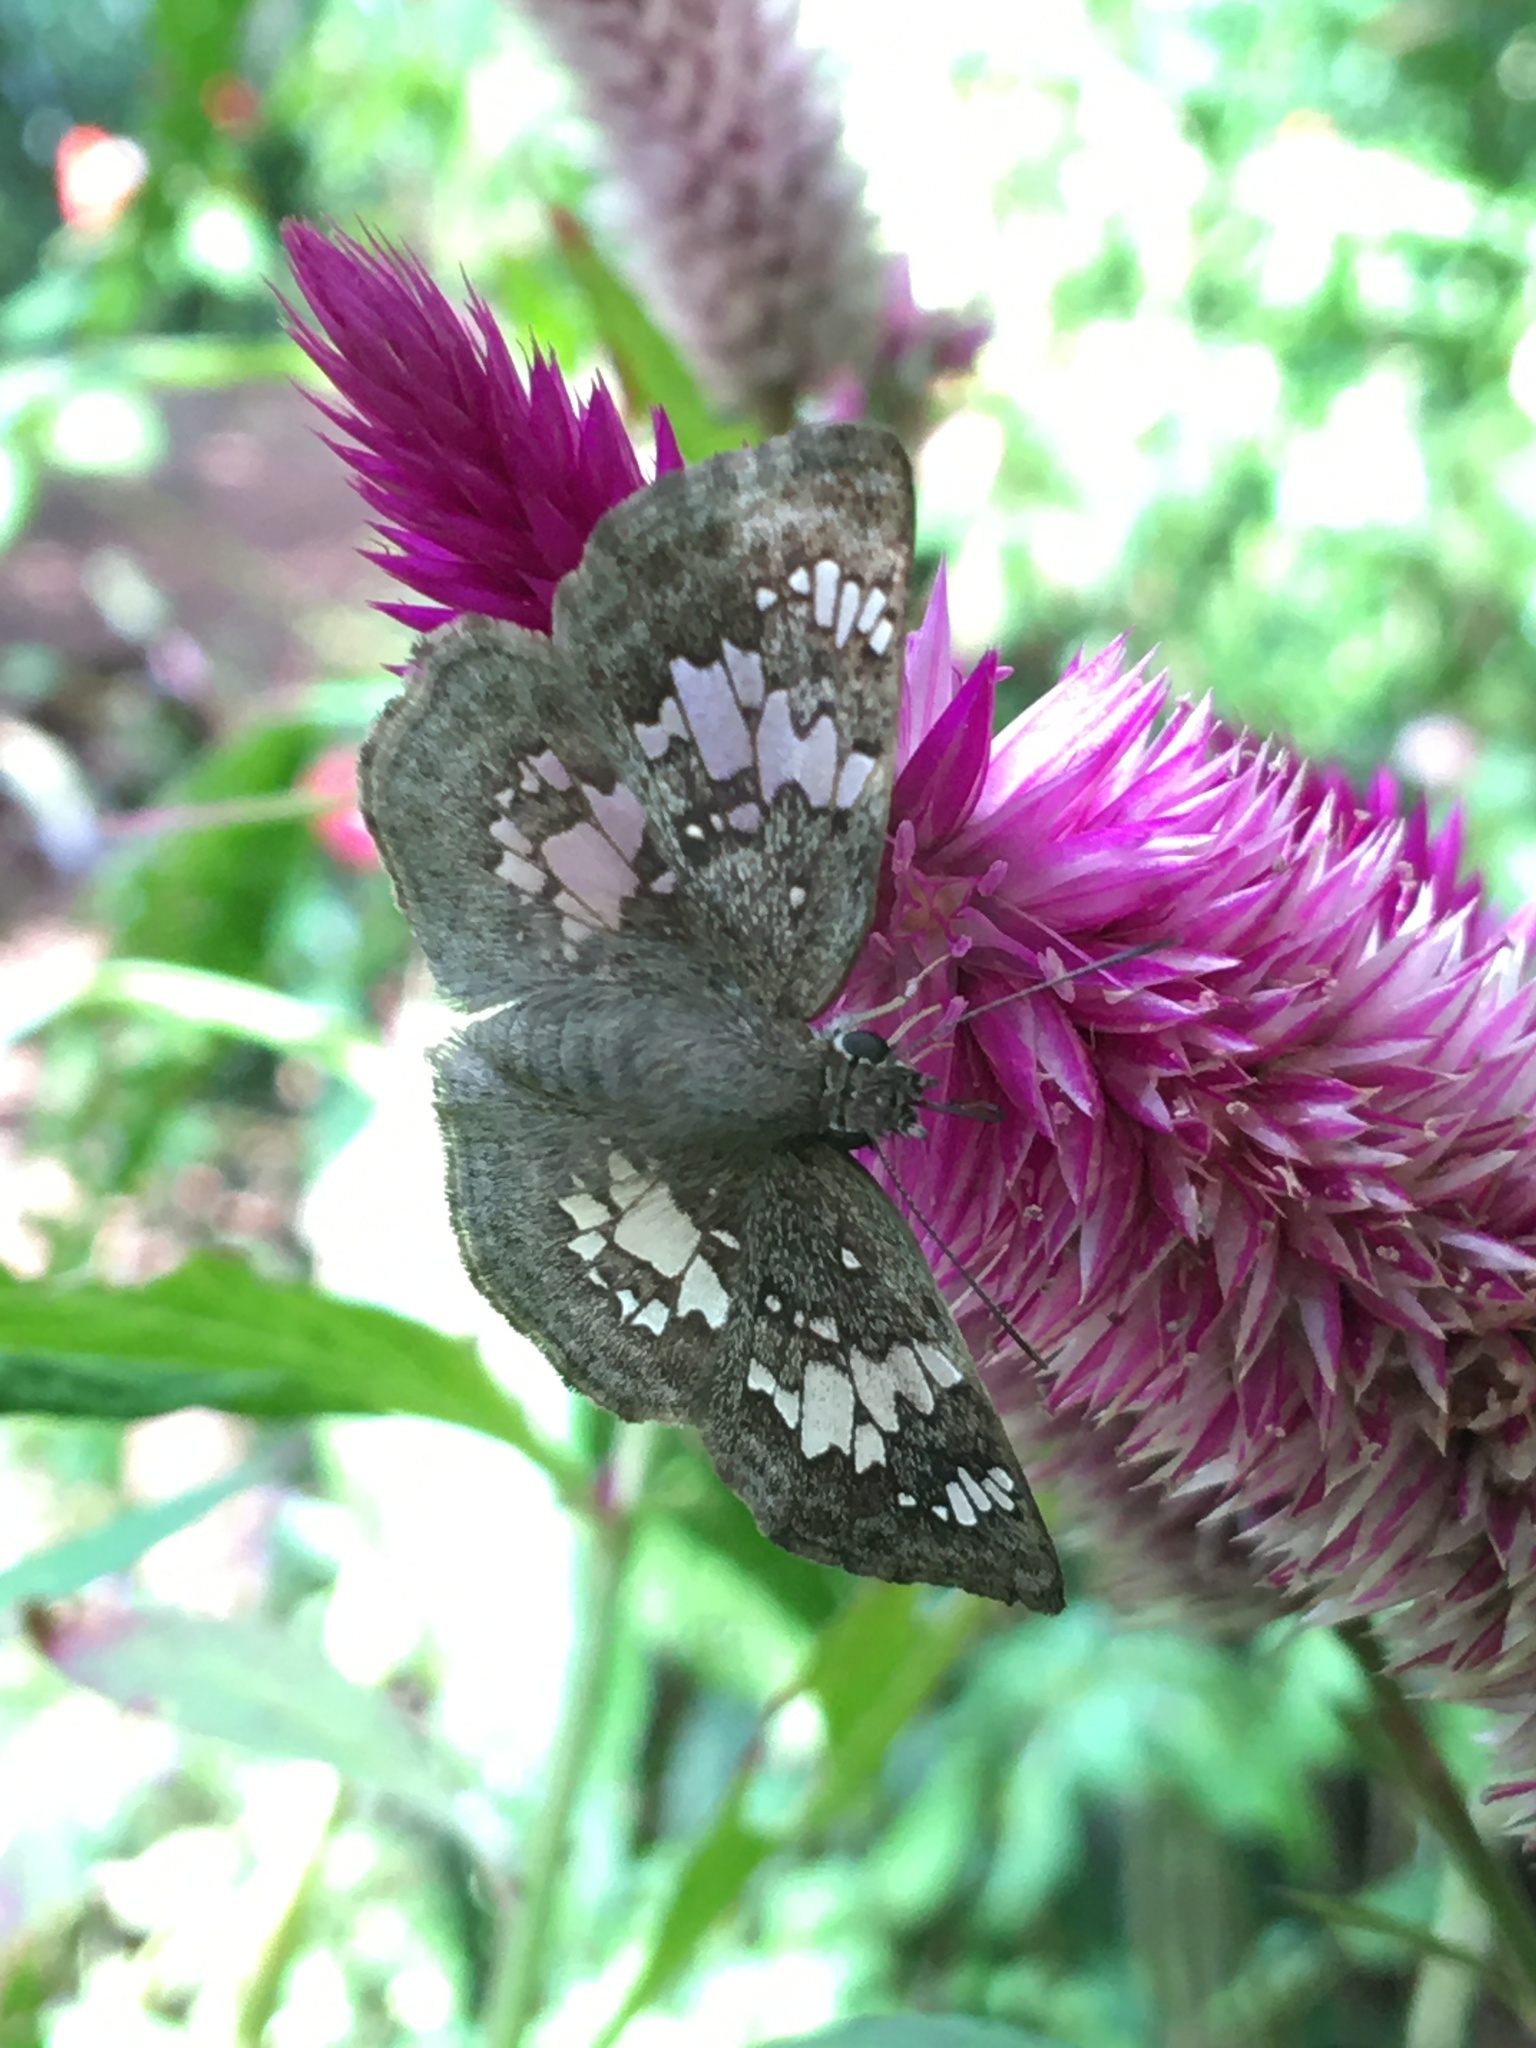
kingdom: Animalia
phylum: Arthropoda
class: Insecta
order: Lepidoptera
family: Hesperiidae
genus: Xenophanes
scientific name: Xenophanes tryxus
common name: Glassy-winged skipper
